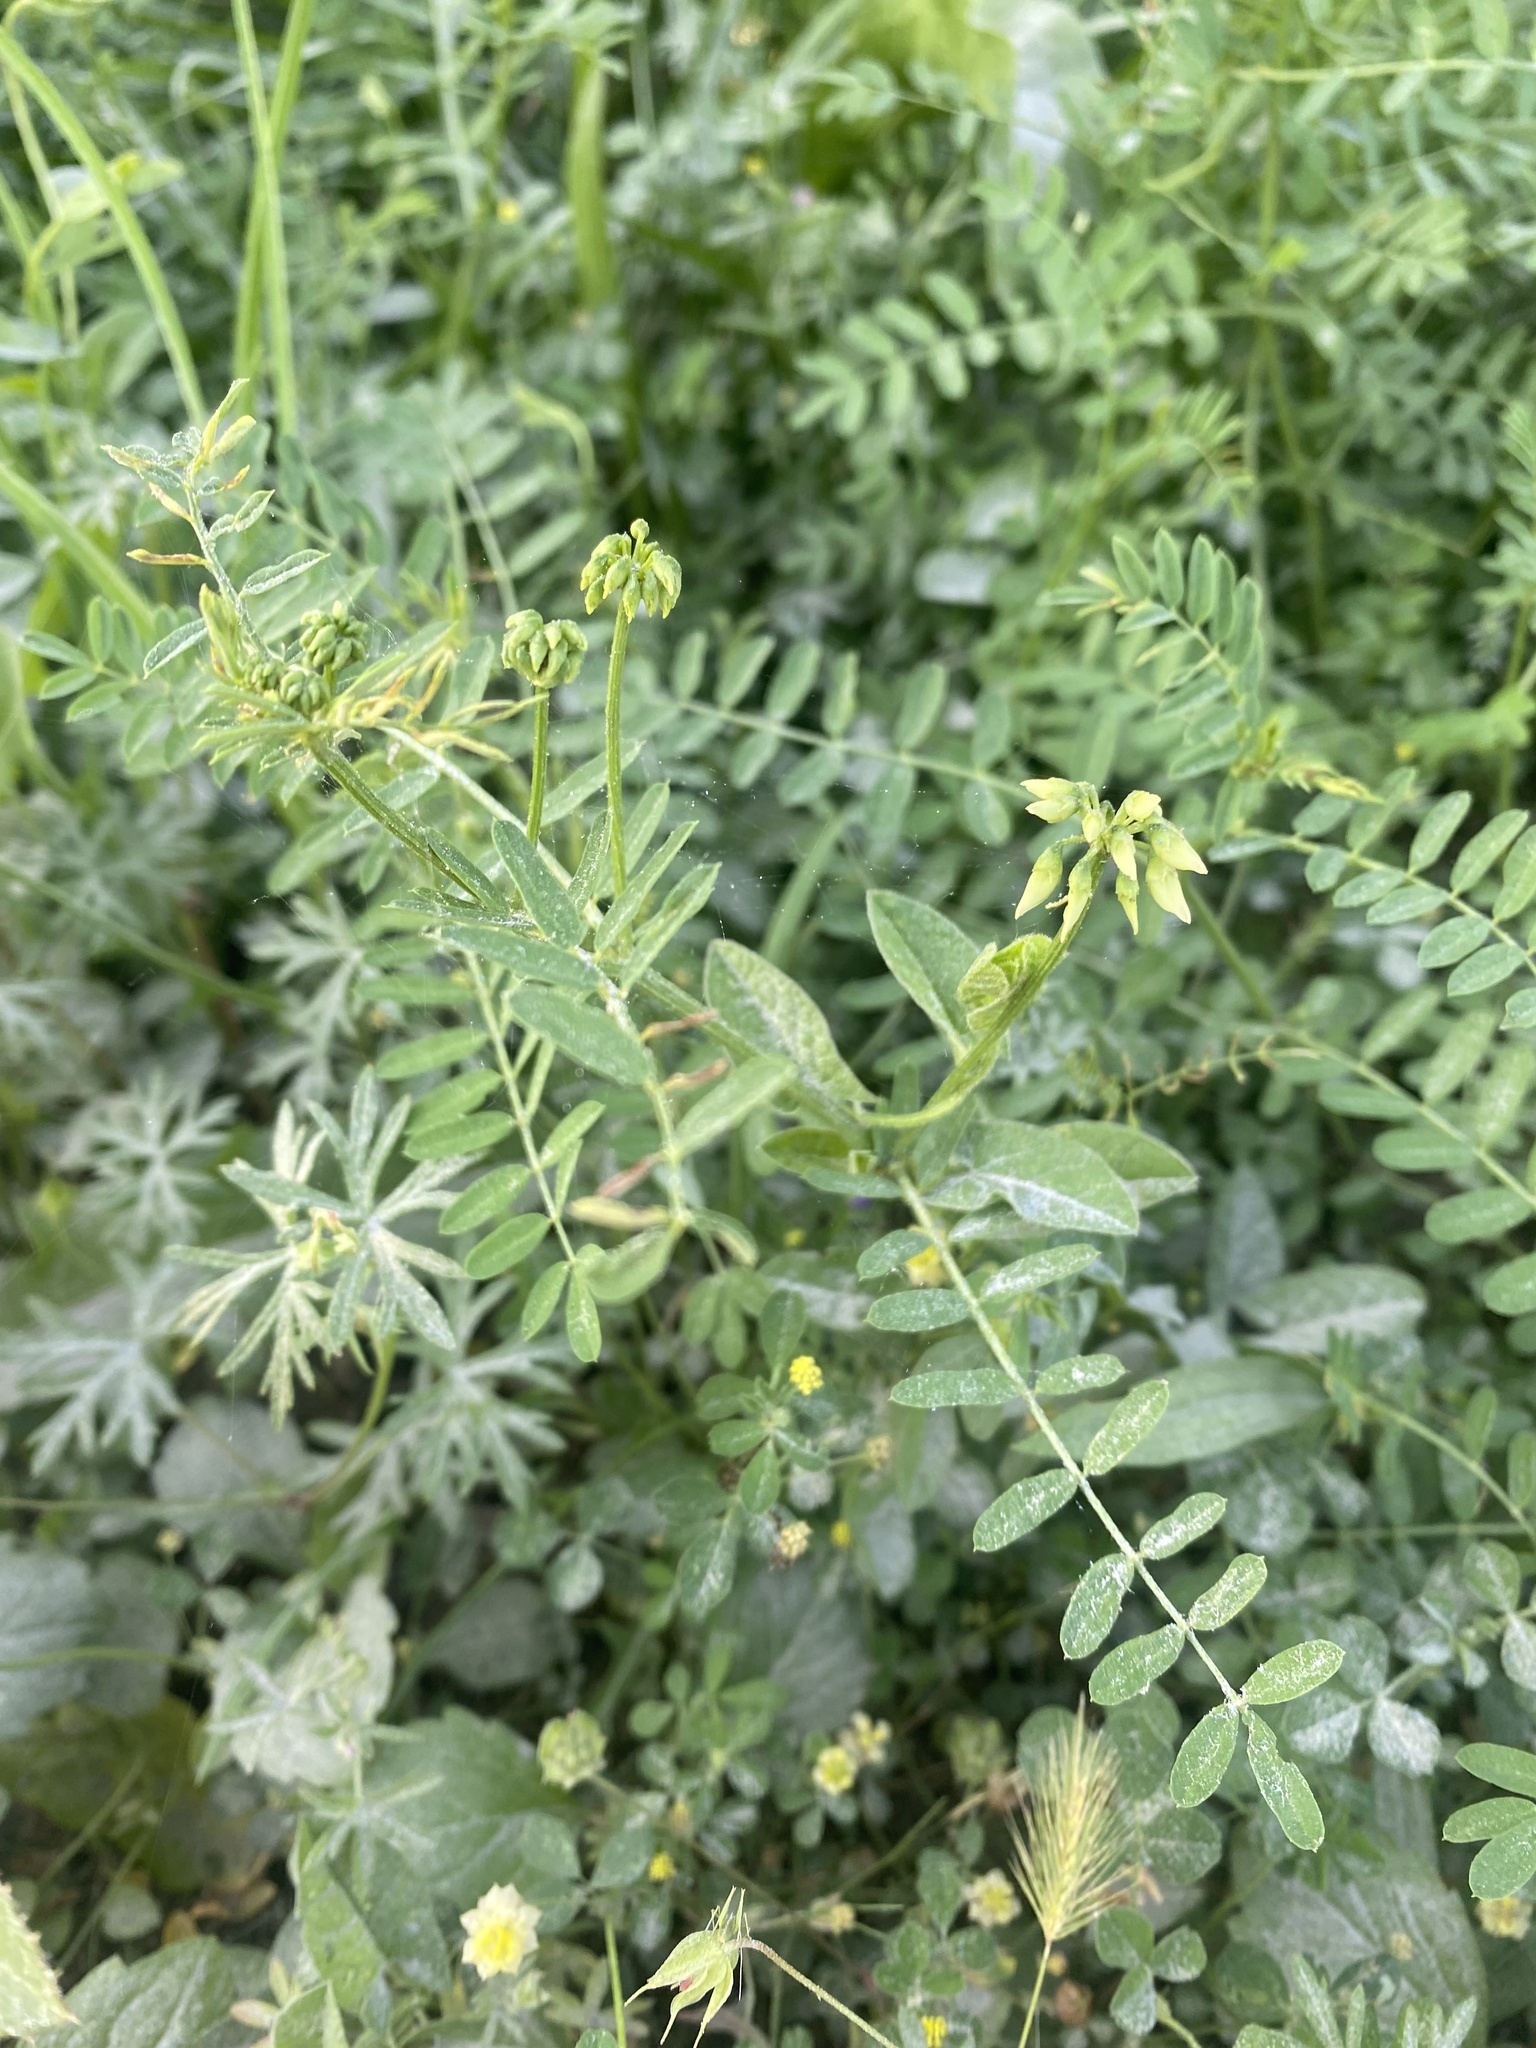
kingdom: Plantae
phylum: Tracheophyta
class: Magnoliopsida
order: Fabales
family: Fabaceae
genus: Coronilla
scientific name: Coronilla varia
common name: Crownvetch
